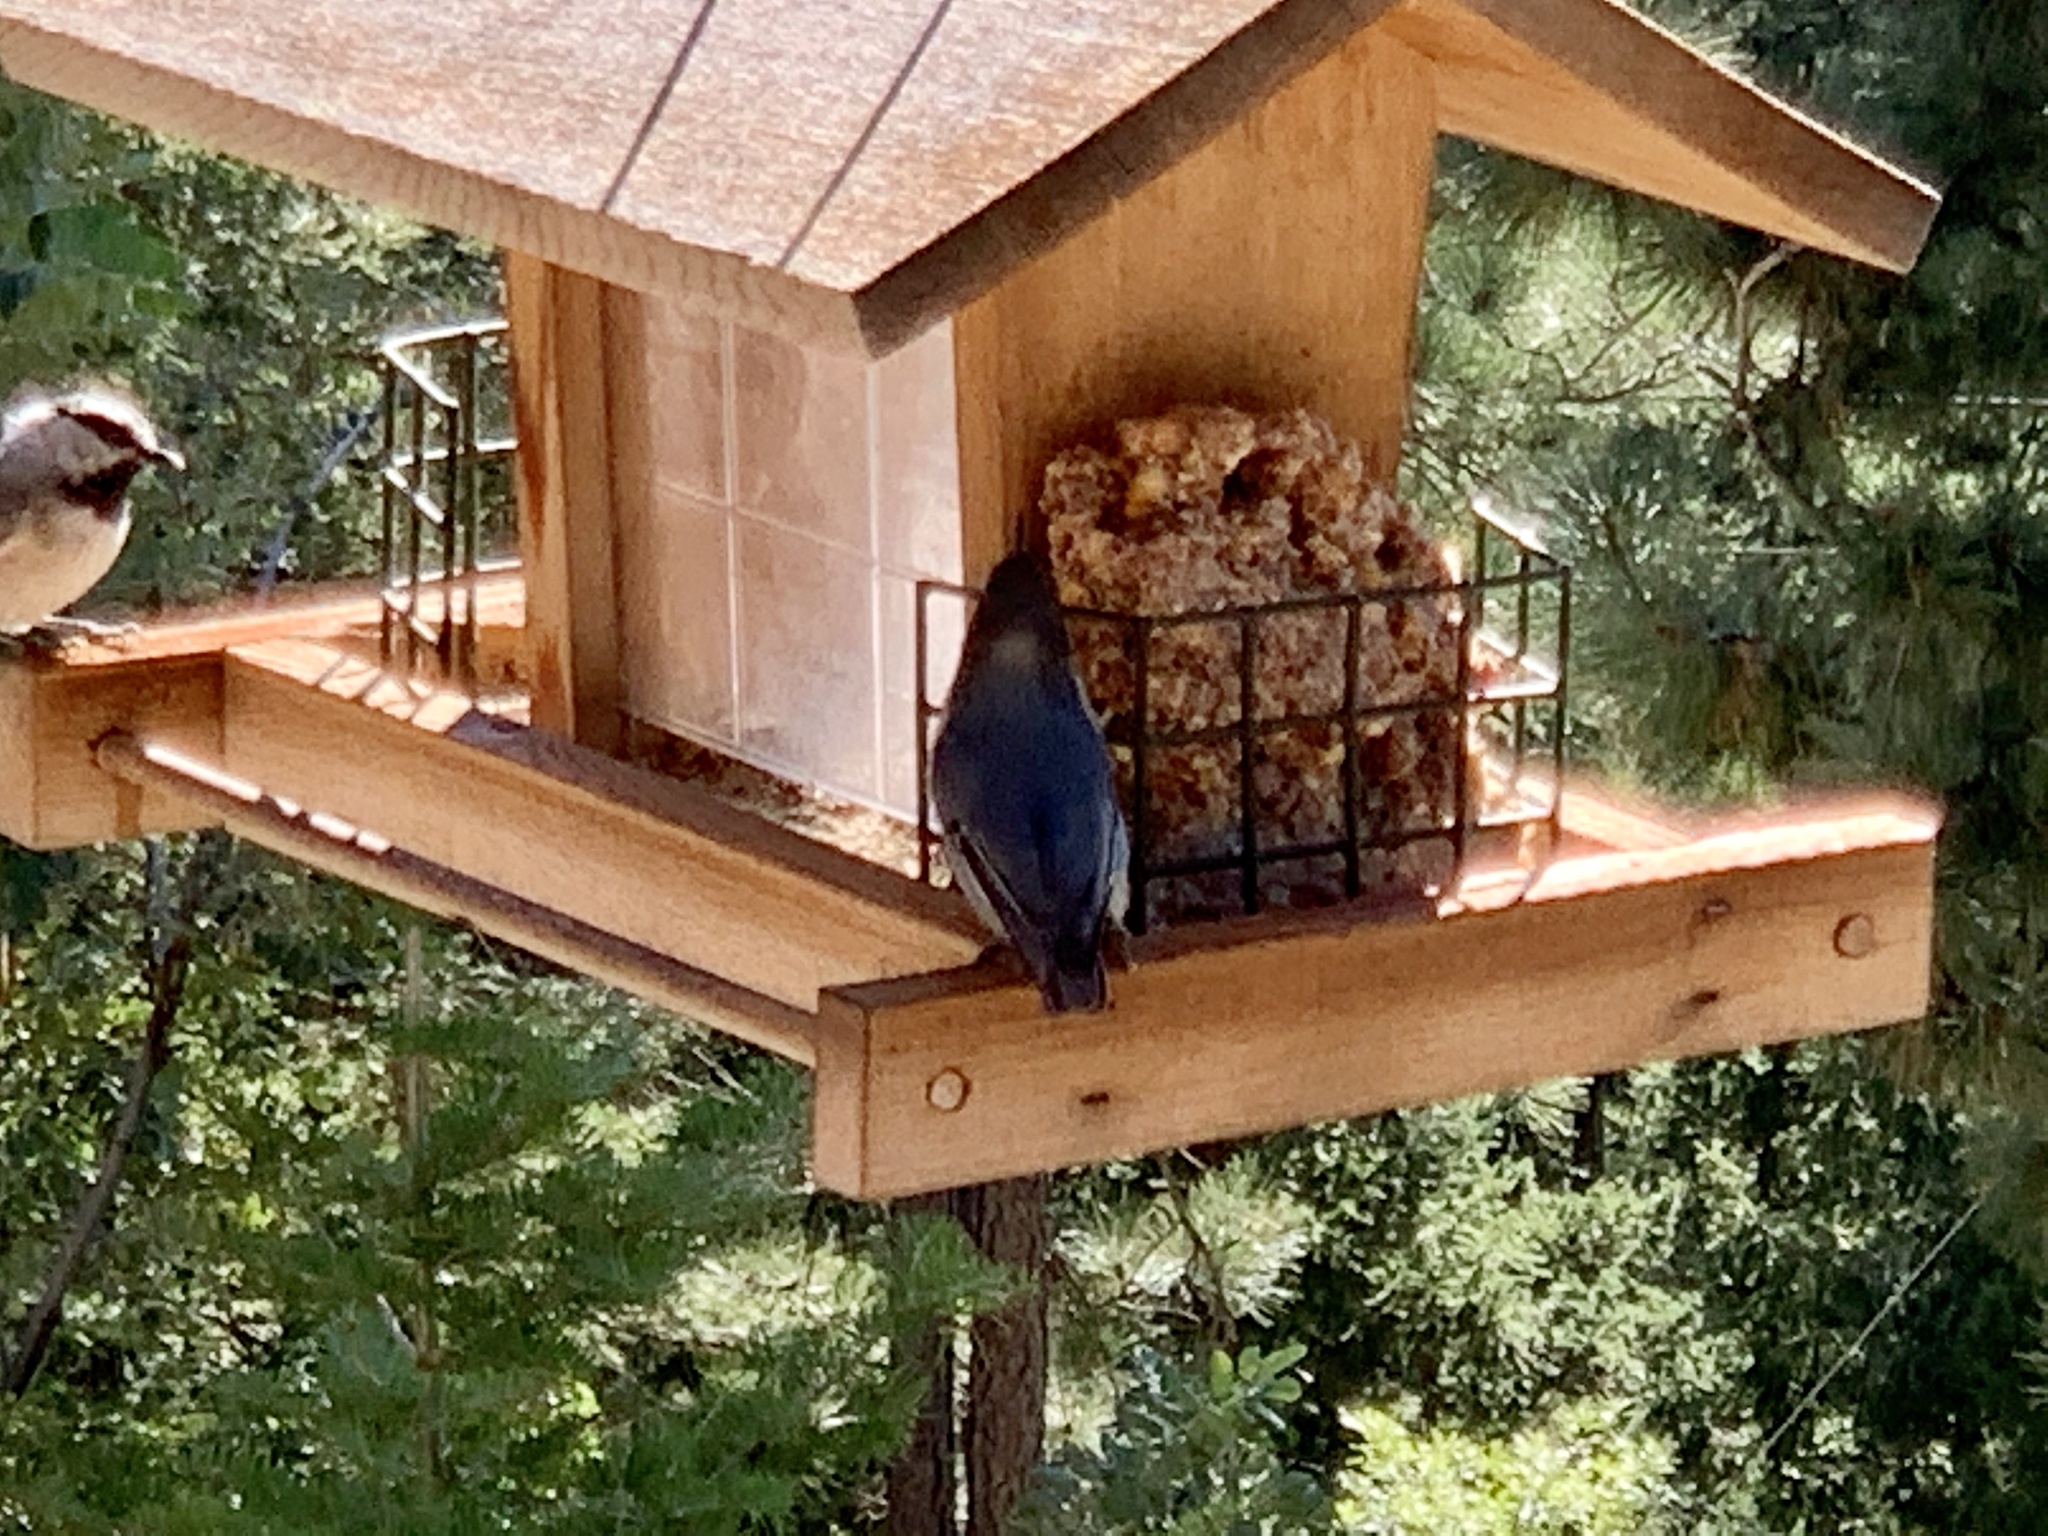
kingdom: Animalia
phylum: Chordata
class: Aves
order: Passeriformes
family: Sittidae
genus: Sitta
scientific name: Sitta pygmaea
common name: Pygmy nuthatch
